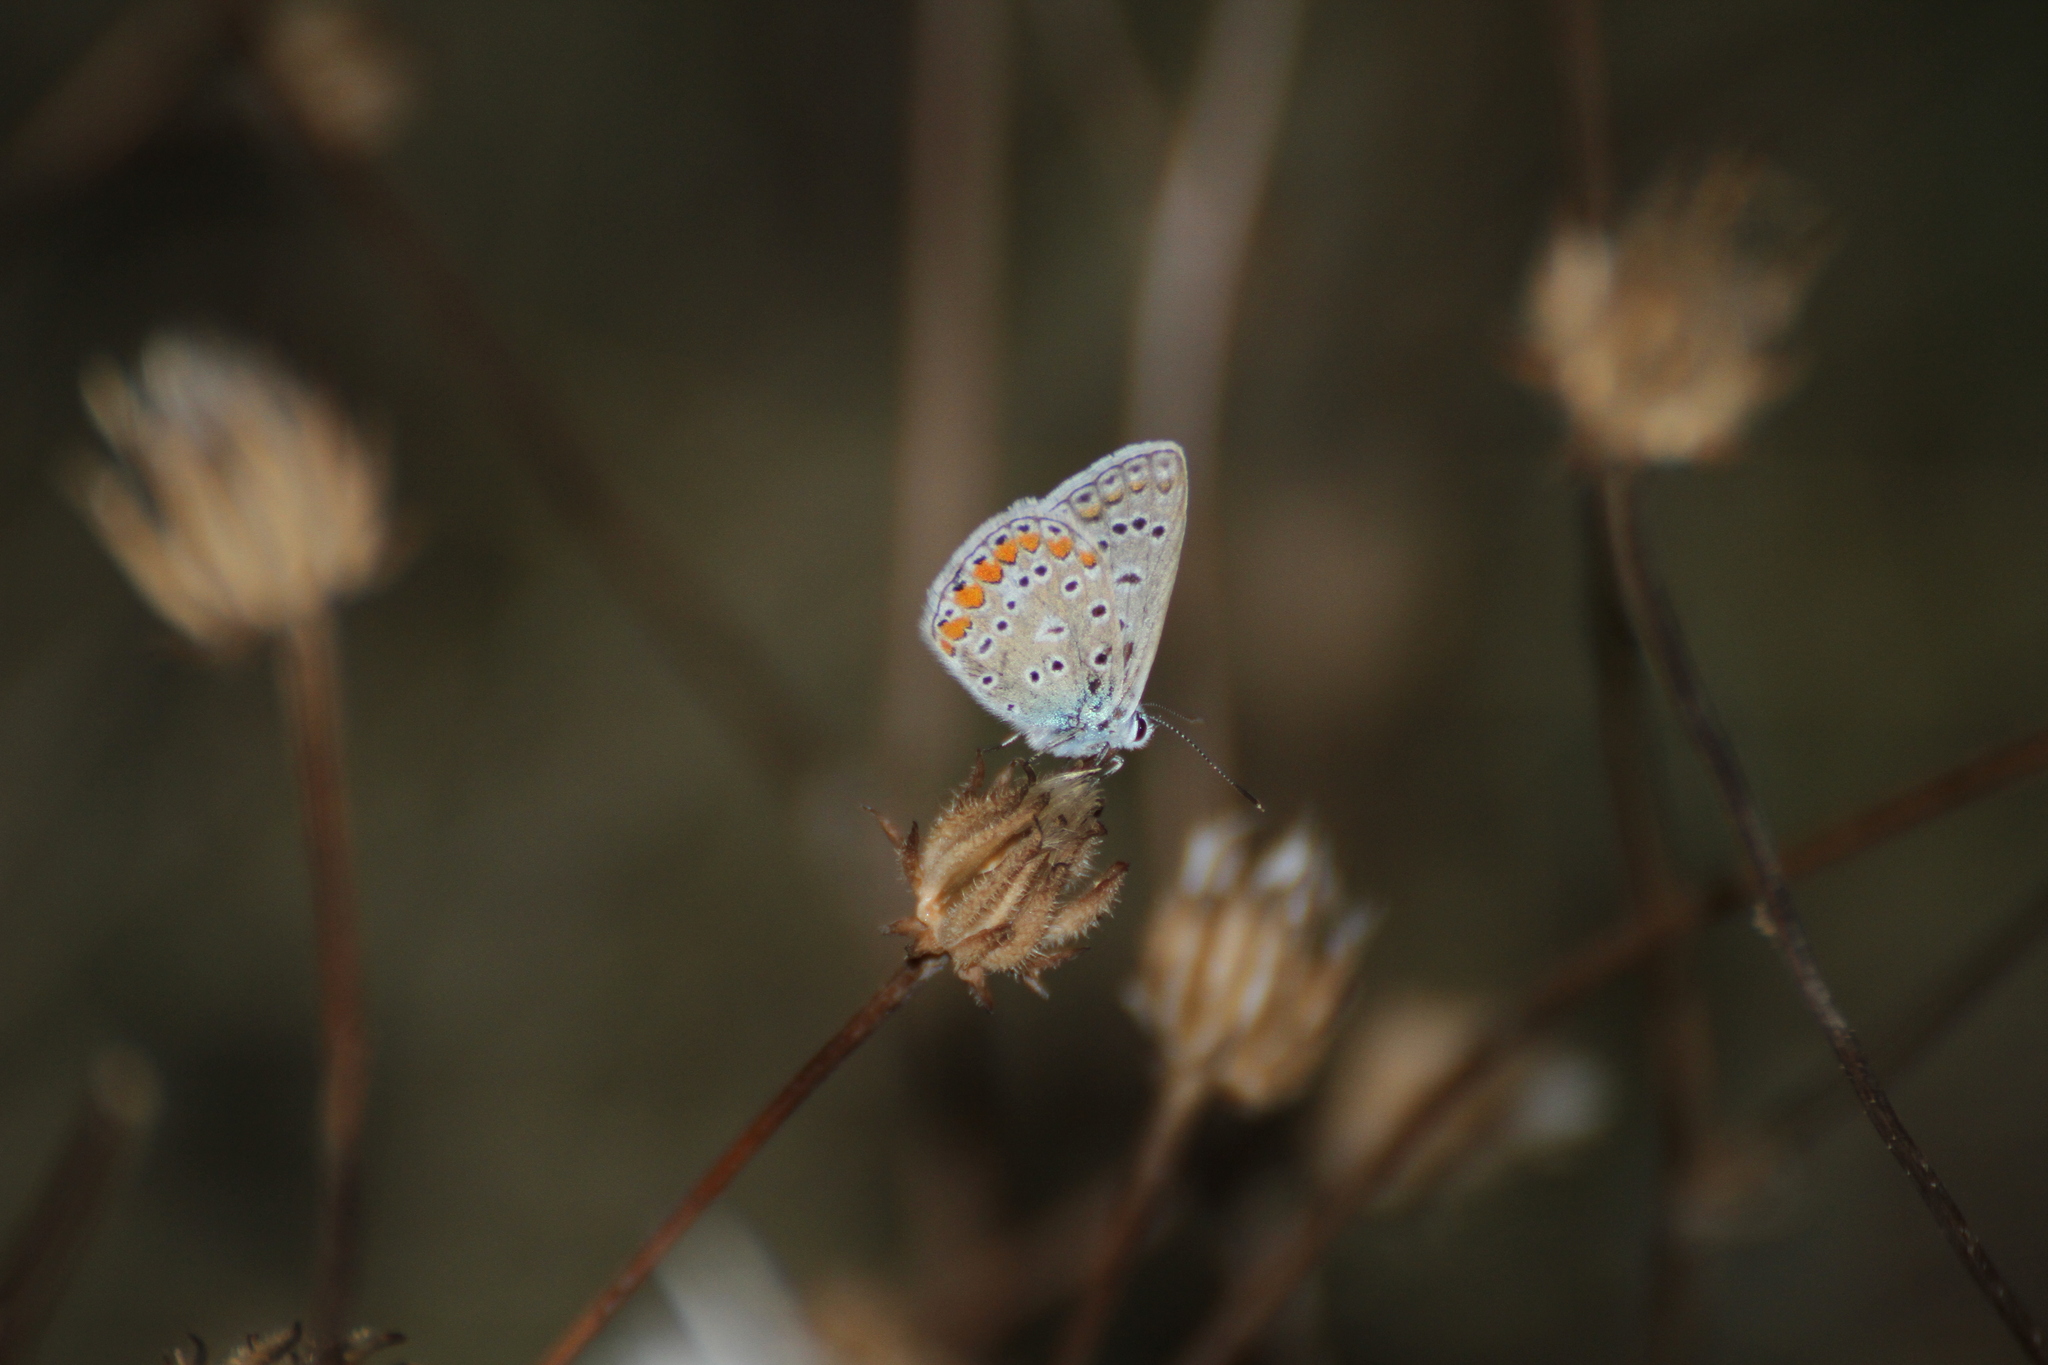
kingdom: Animalia
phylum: Arthropoda
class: Insecta
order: Lepidoptera
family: Lycaenidae
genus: Polyommatus
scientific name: Polyommatus icarus
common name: Common blue
